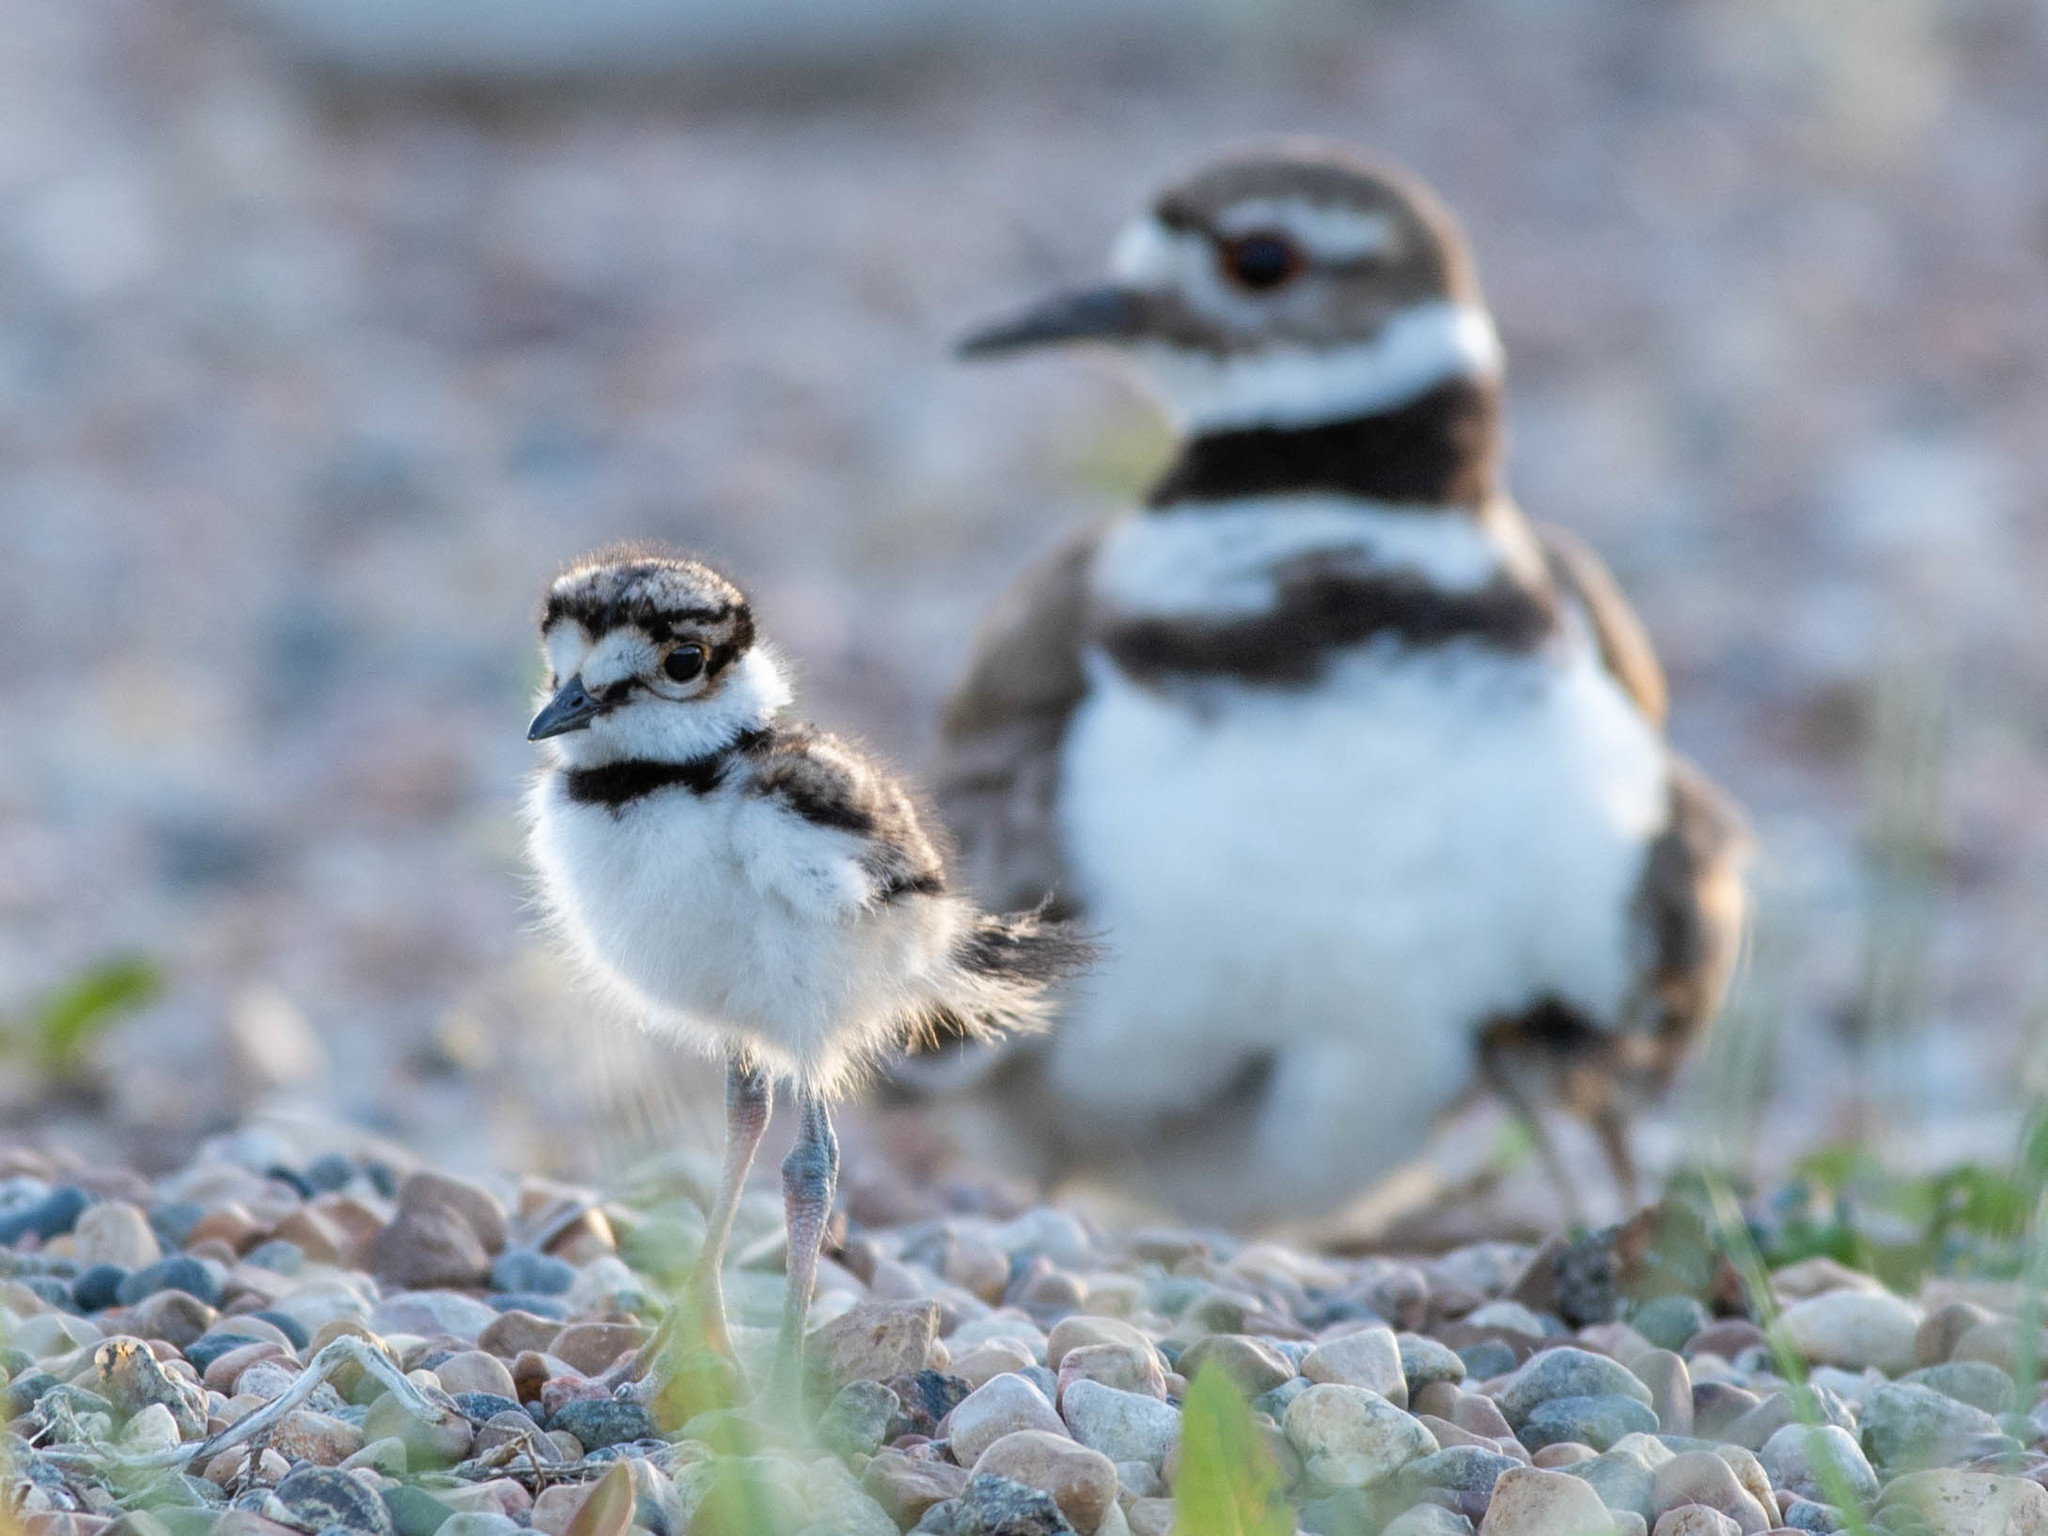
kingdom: Animalia
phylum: Chordata
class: Aves
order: Charadriiformes
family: Charadriidae
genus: Charadrius
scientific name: Charadrius vociferus
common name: Killdeer
